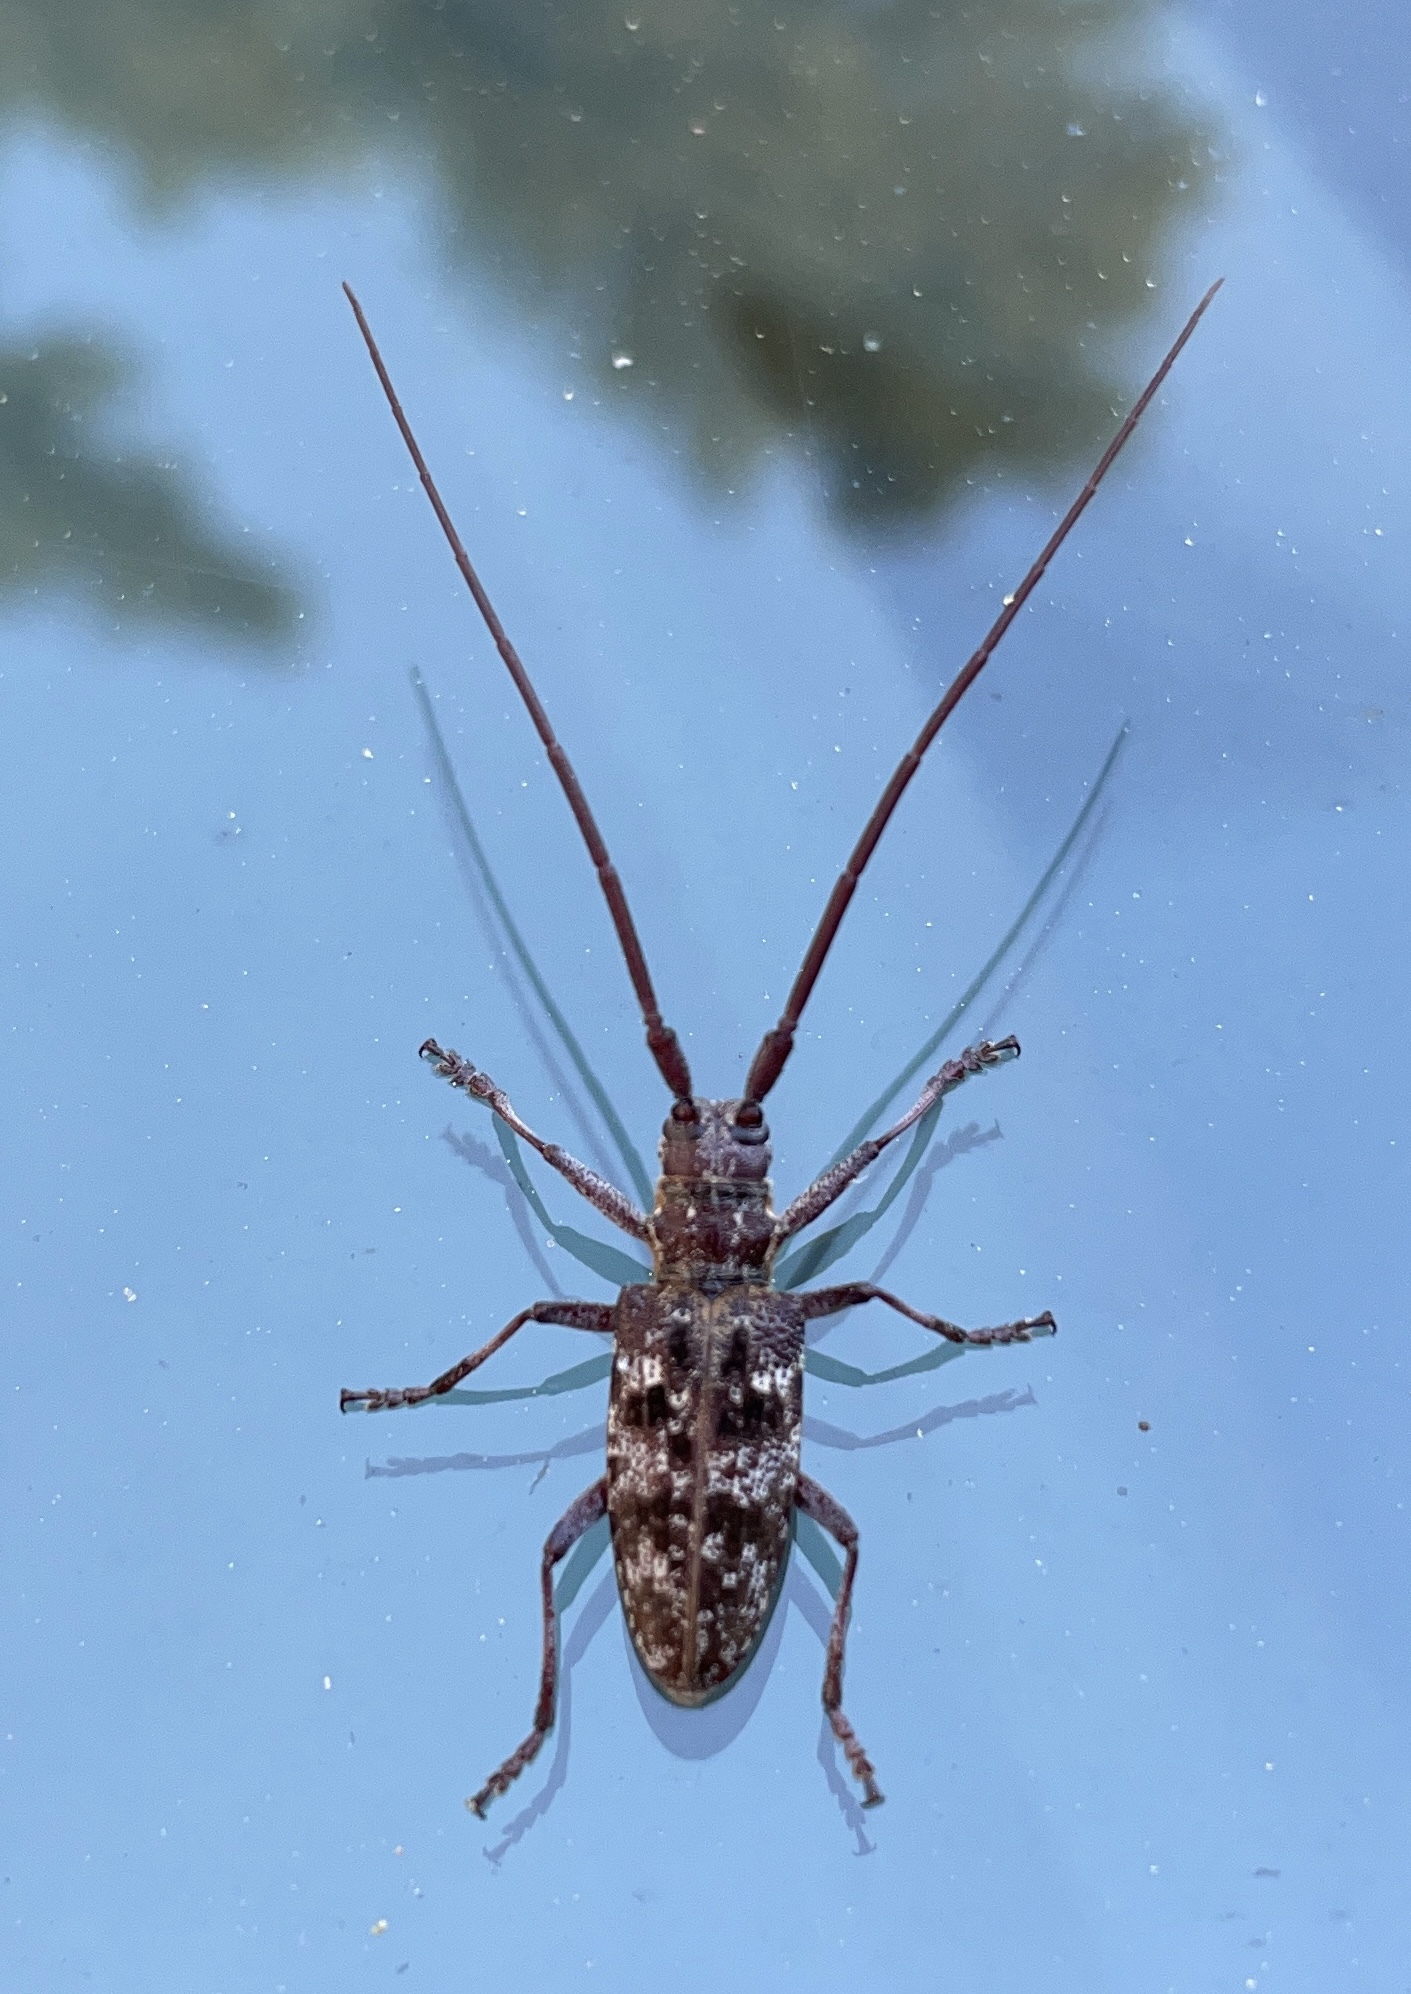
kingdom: Animalia
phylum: Arthropoda
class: Insecta
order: Coleoptera
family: Cerambycidae
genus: Monochamus
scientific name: Monochamus clamator
